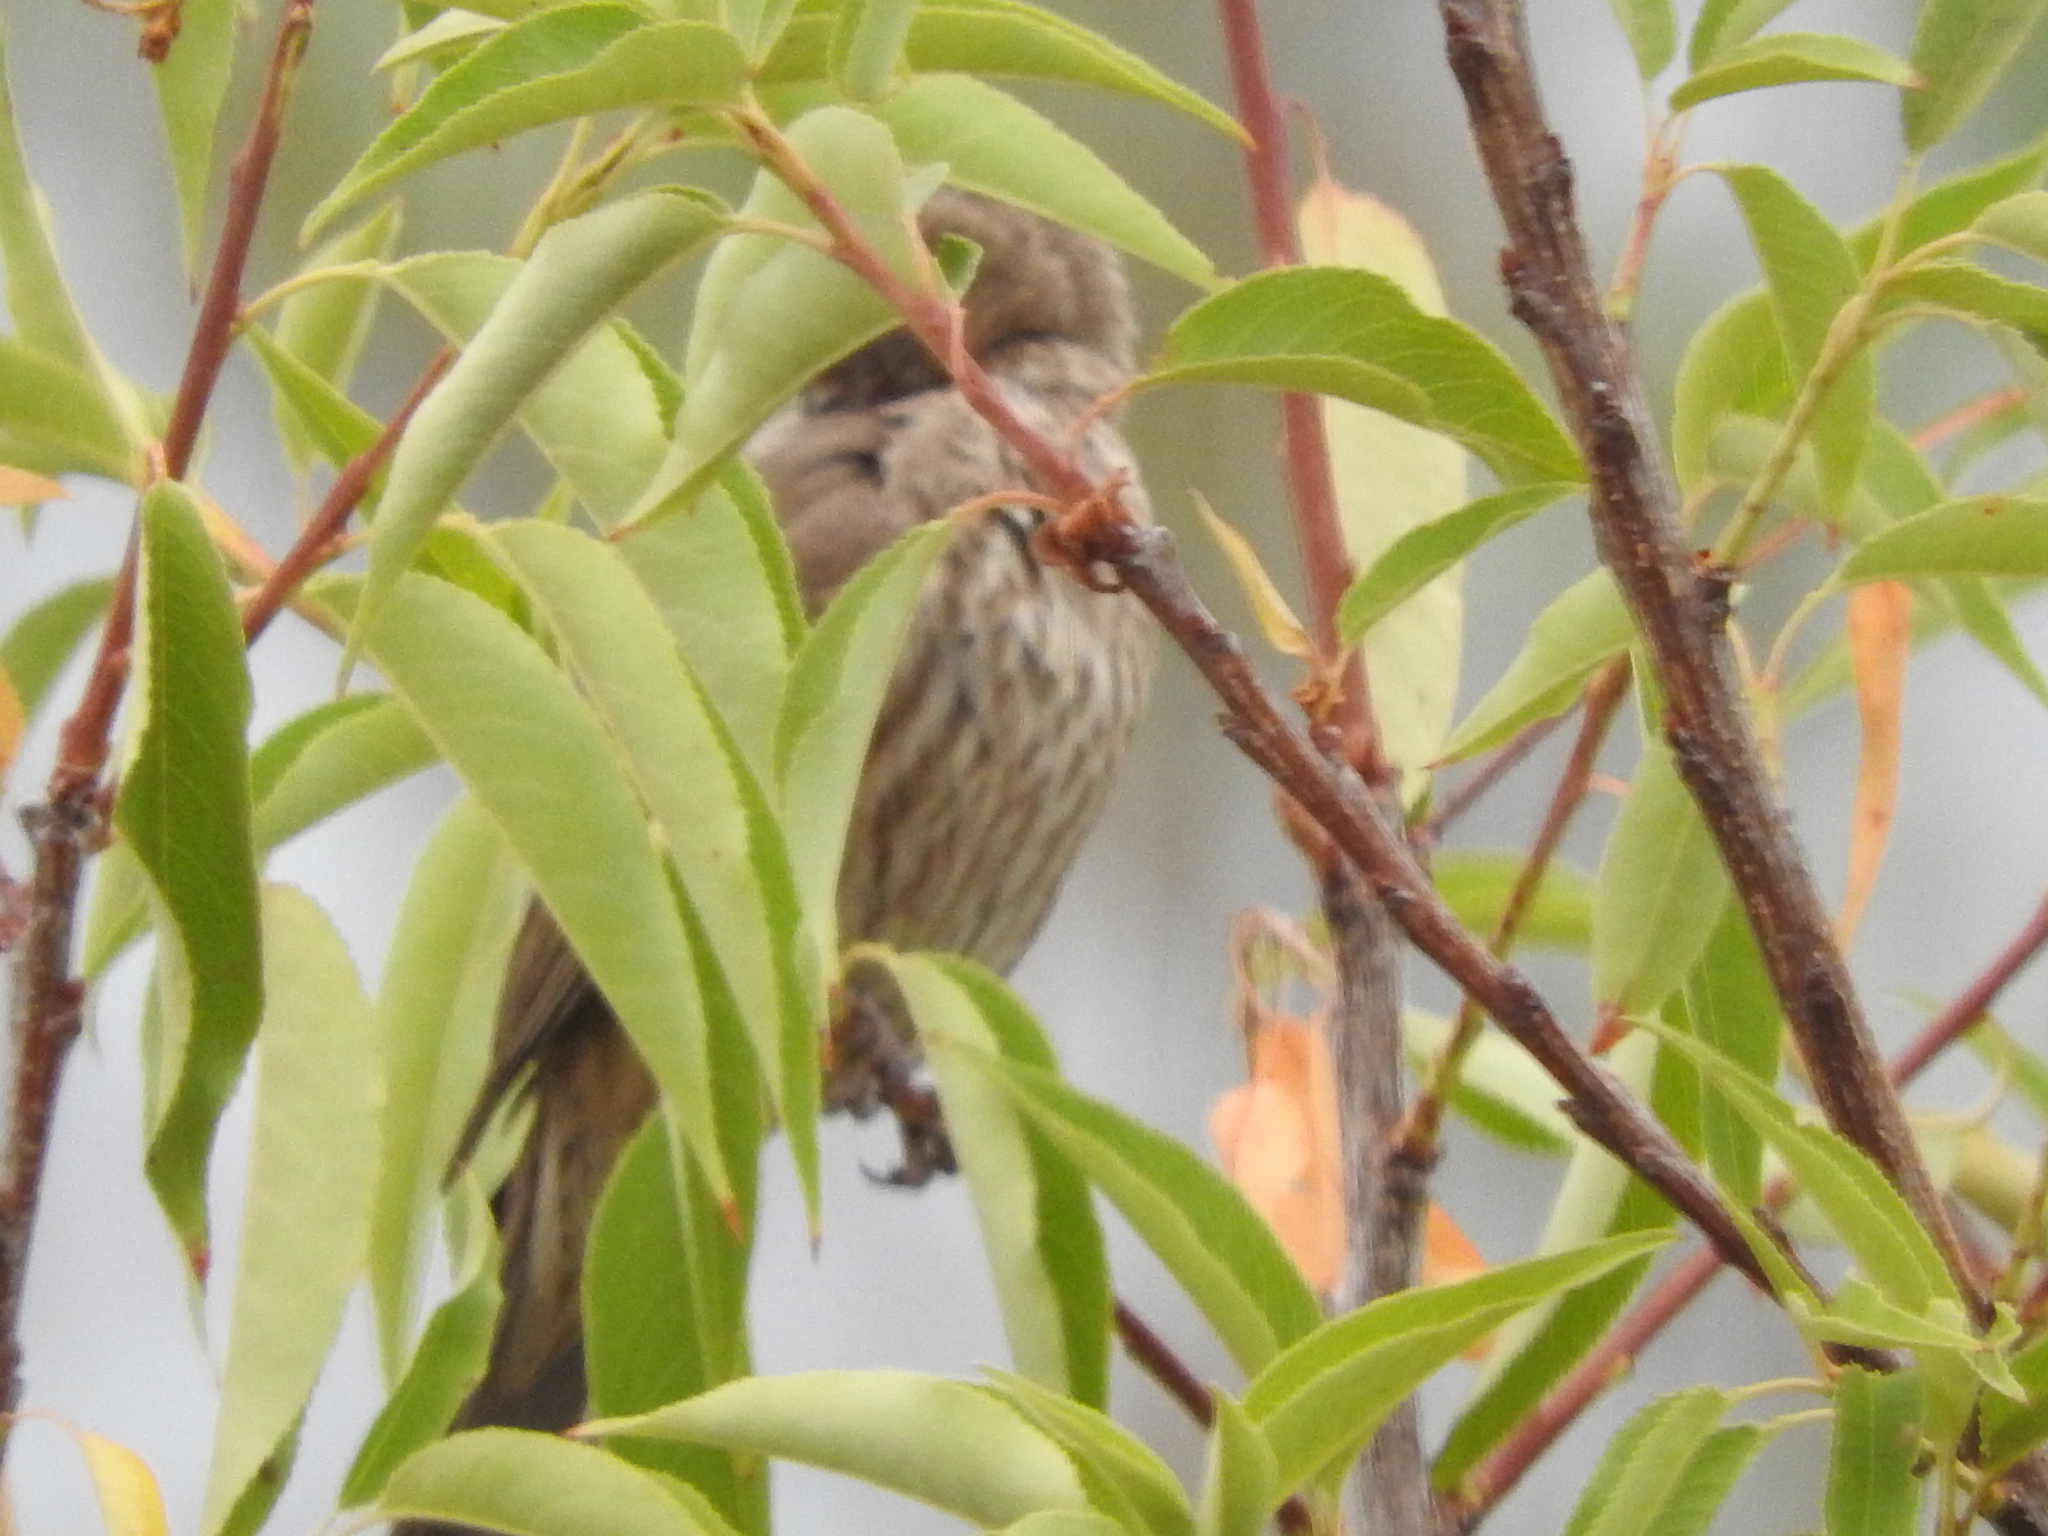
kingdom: Animalia
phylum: Chordata
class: Aves
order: Passeriformes
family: Fringillidae
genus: Haemorhous
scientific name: Haemorhous mexicanus
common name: House finch
